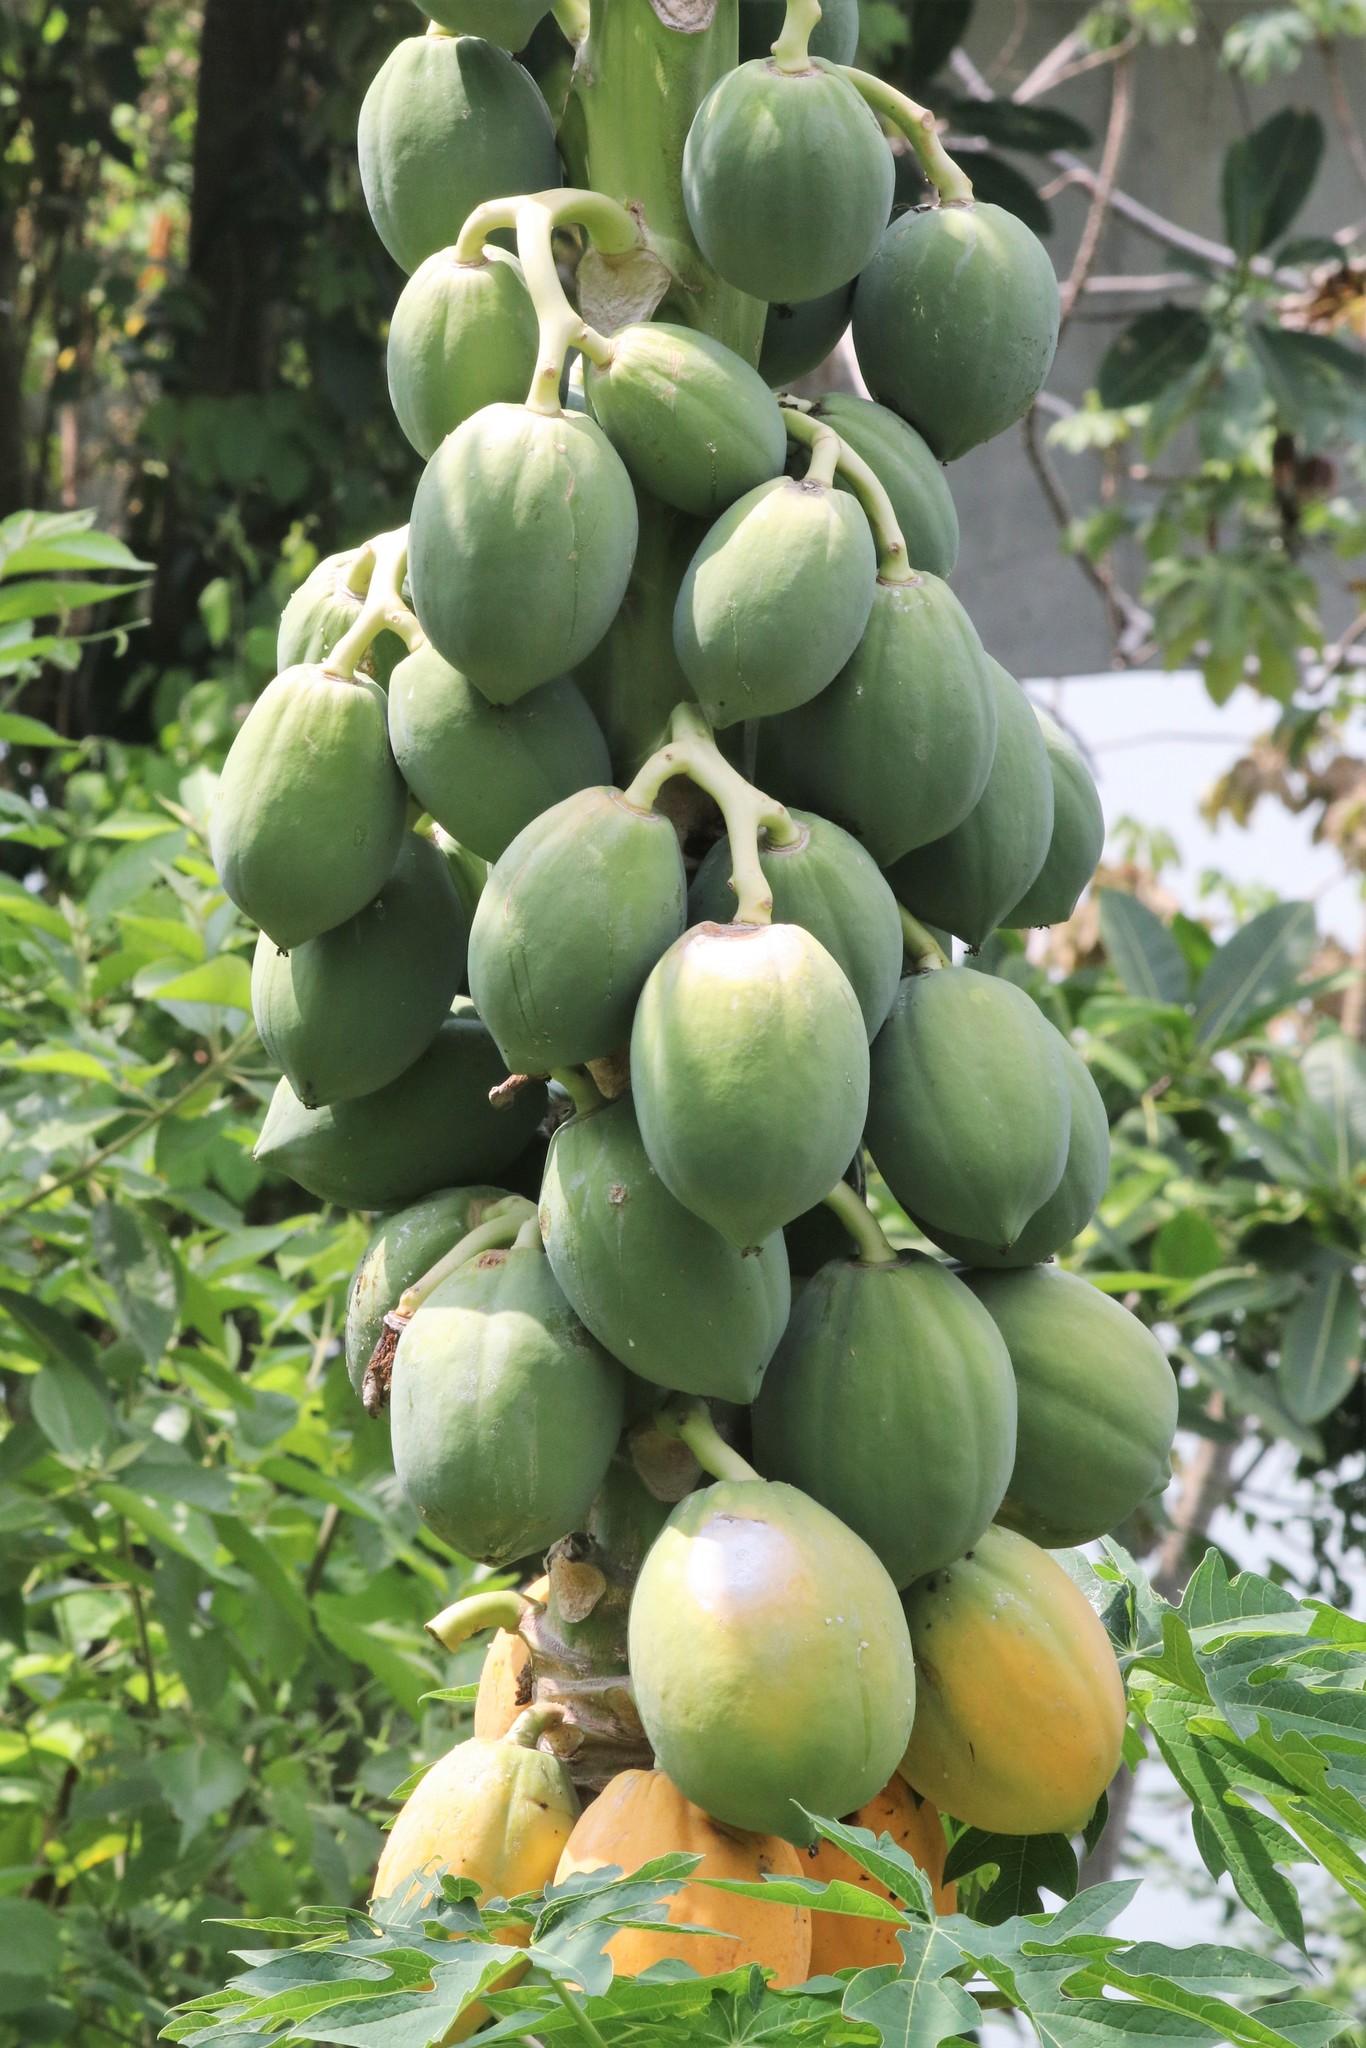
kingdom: Plantae
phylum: Tracheophyta
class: Magnoliopsida
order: Brassicales
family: Caricaceae
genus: Carica
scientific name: Carica papaya
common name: Papaya
